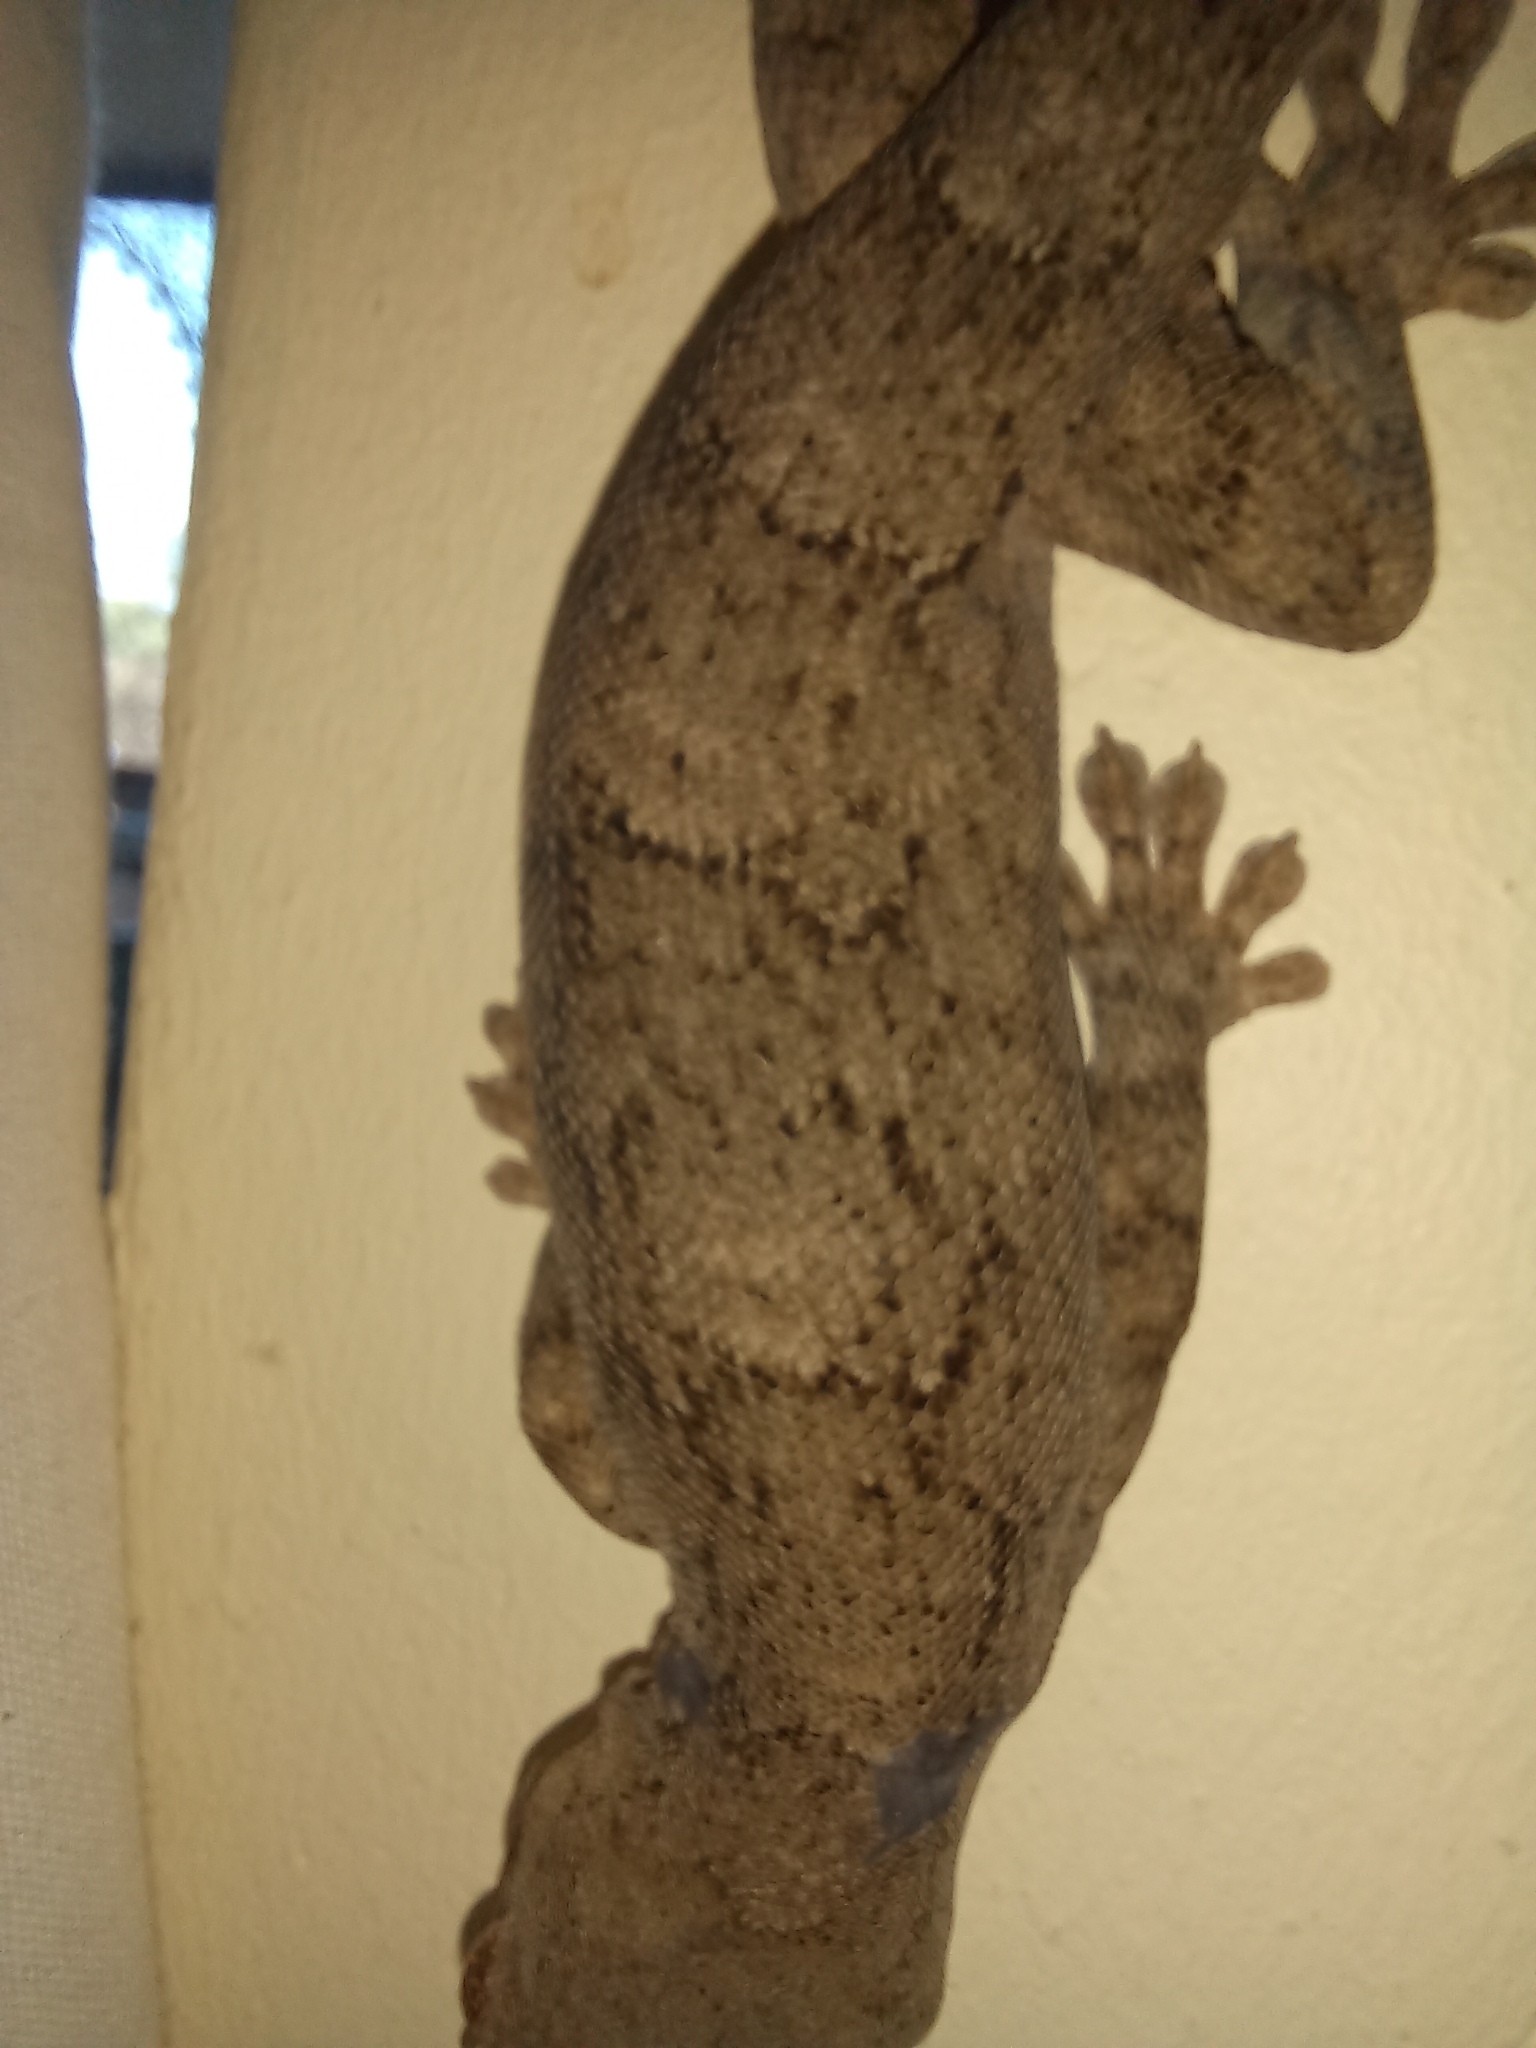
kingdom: Animalia
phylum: Chordata
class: Squamata
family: Gekkonidae
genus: Homopholis
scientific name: Homopholis walbergii
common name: Wahlberg’s velvet gecko
